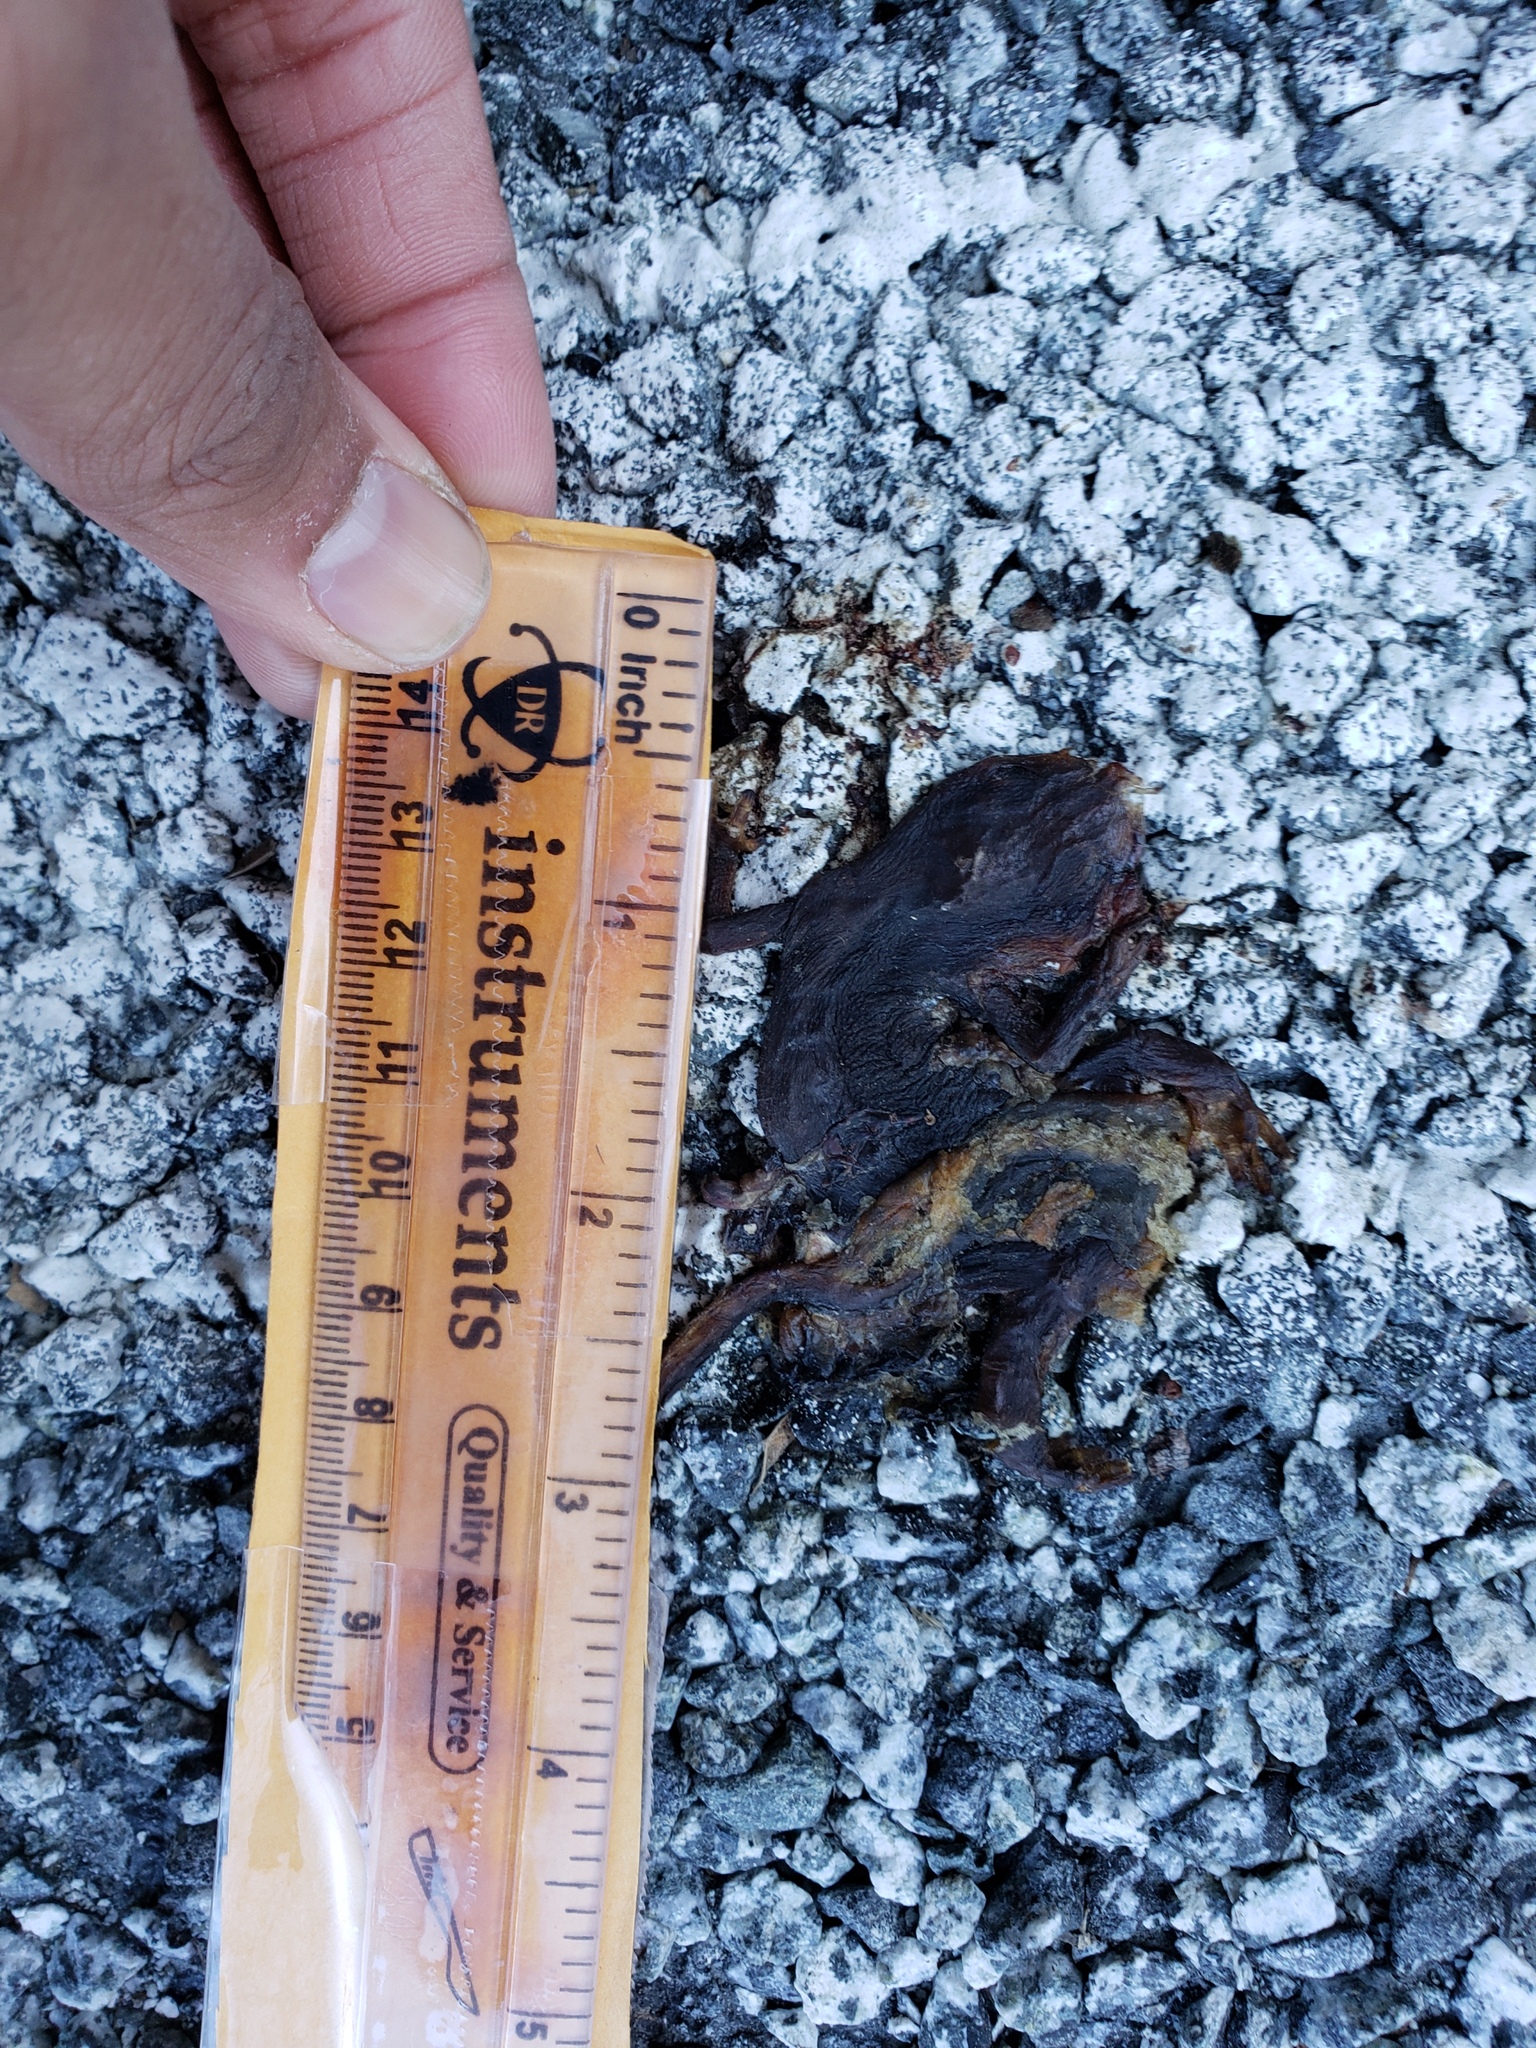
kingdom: Animalia
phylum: Chordata
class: Amphibia
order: Caudata
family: Salamandridae
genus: Taricha
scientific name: Taricha
